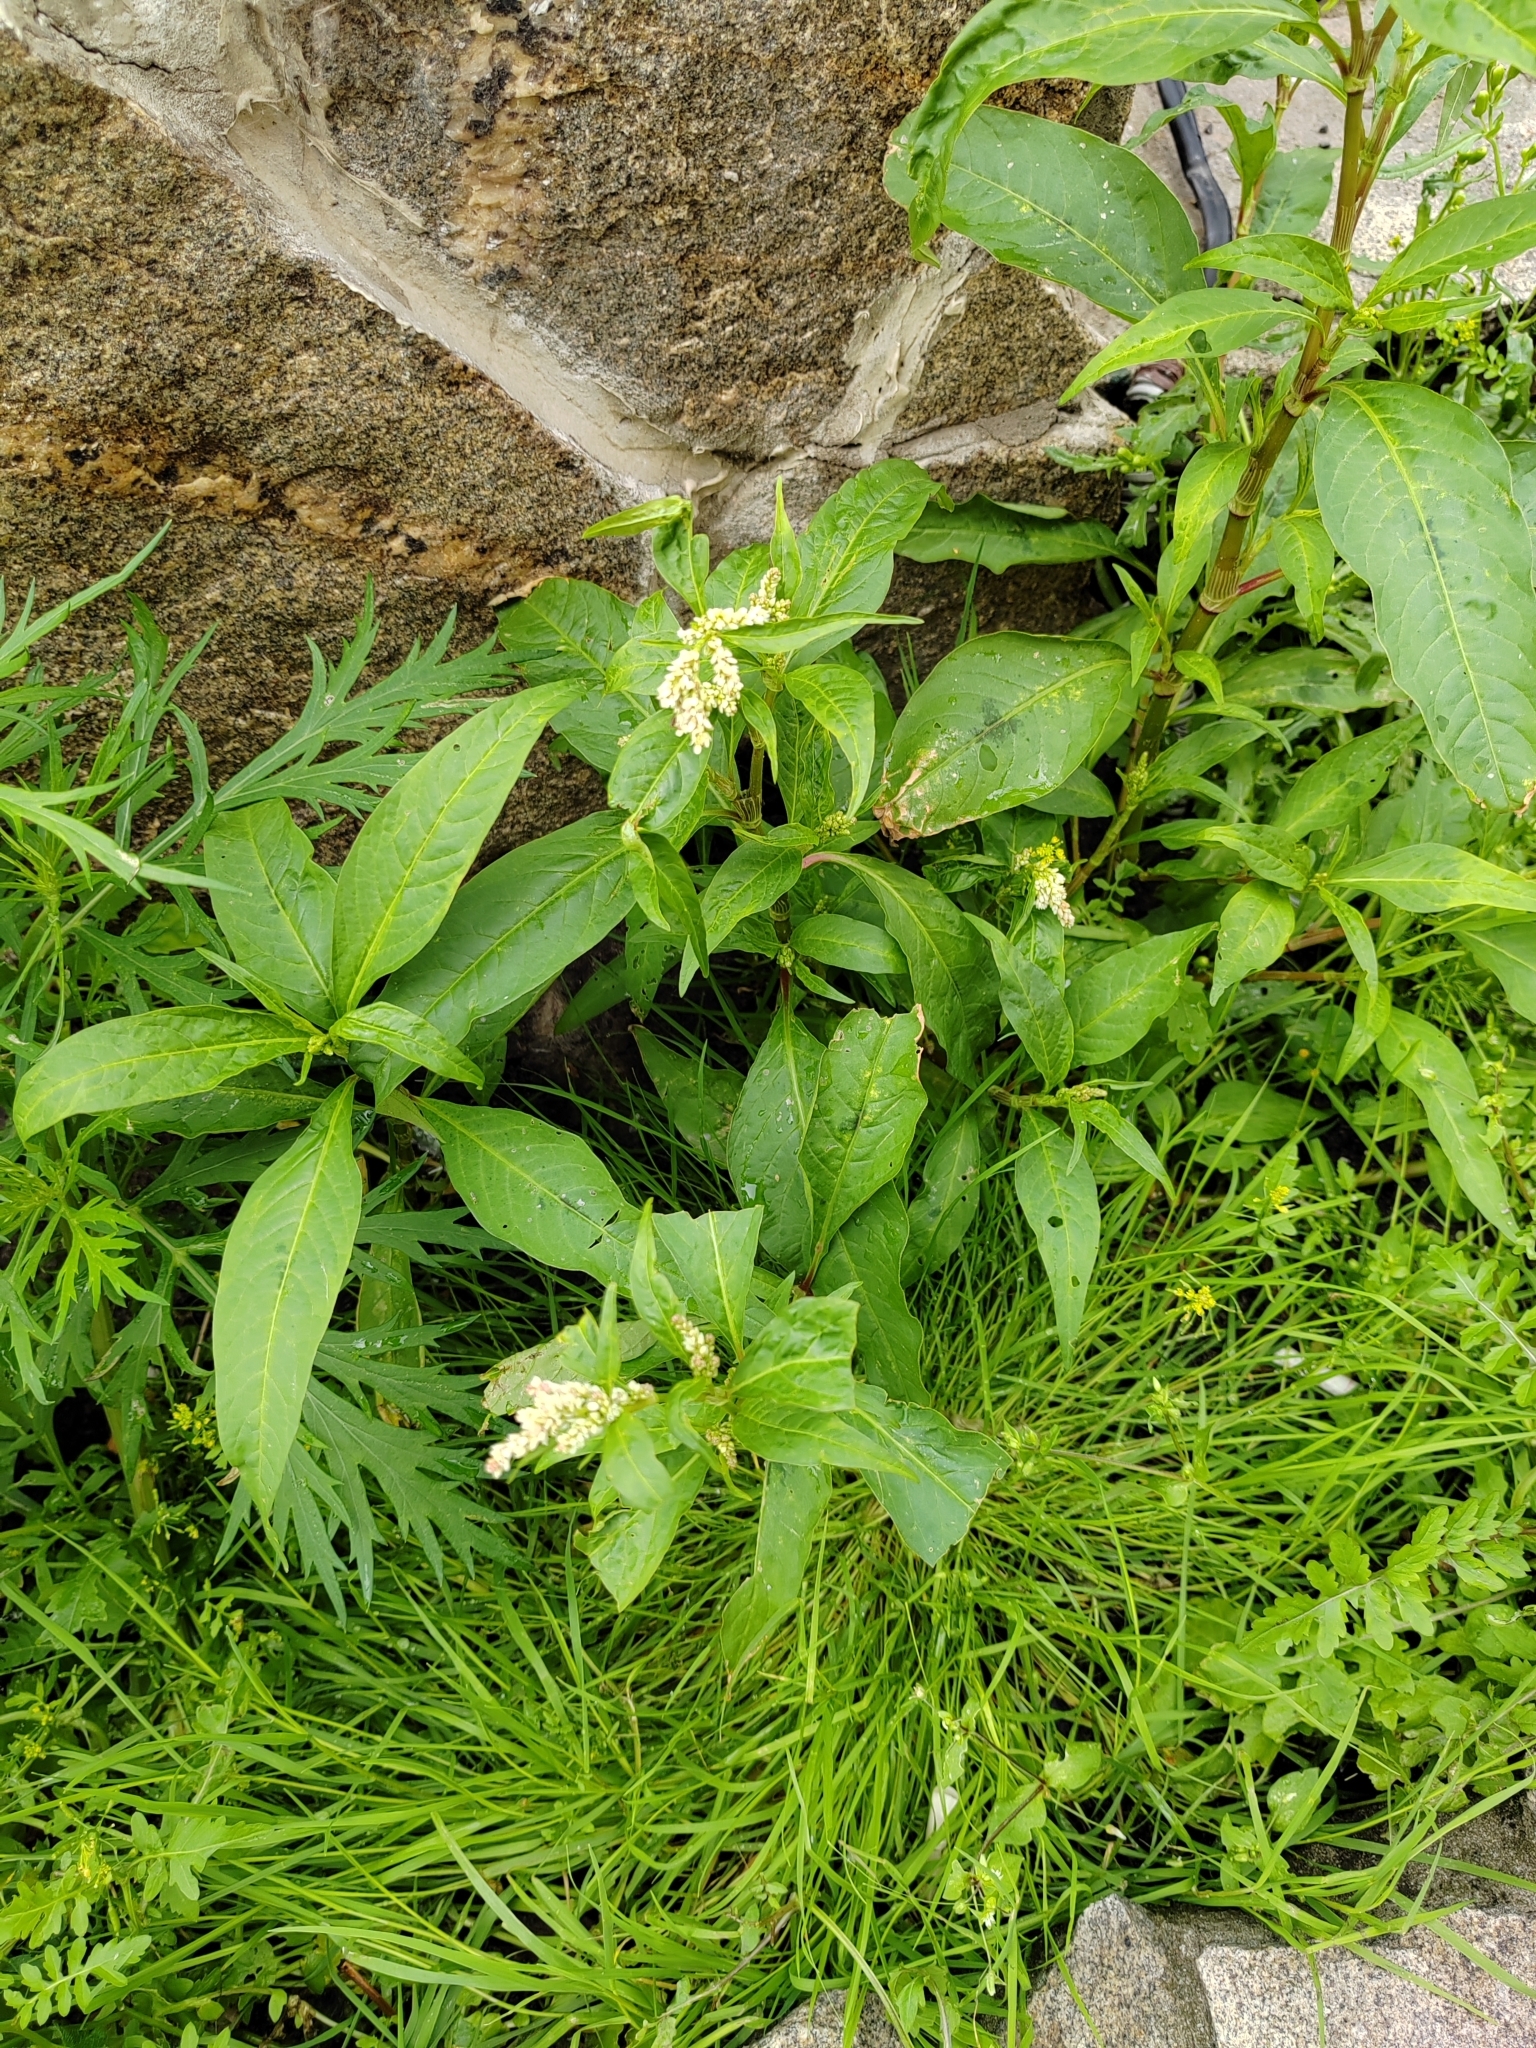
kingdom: Plantae
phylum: Tracheophyta
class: Magnoliopsida
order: Caryophyllales
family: Polygonaceae
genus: Persicaria
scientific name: Persicaria lapathifolia
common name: Curlytop knotweed
